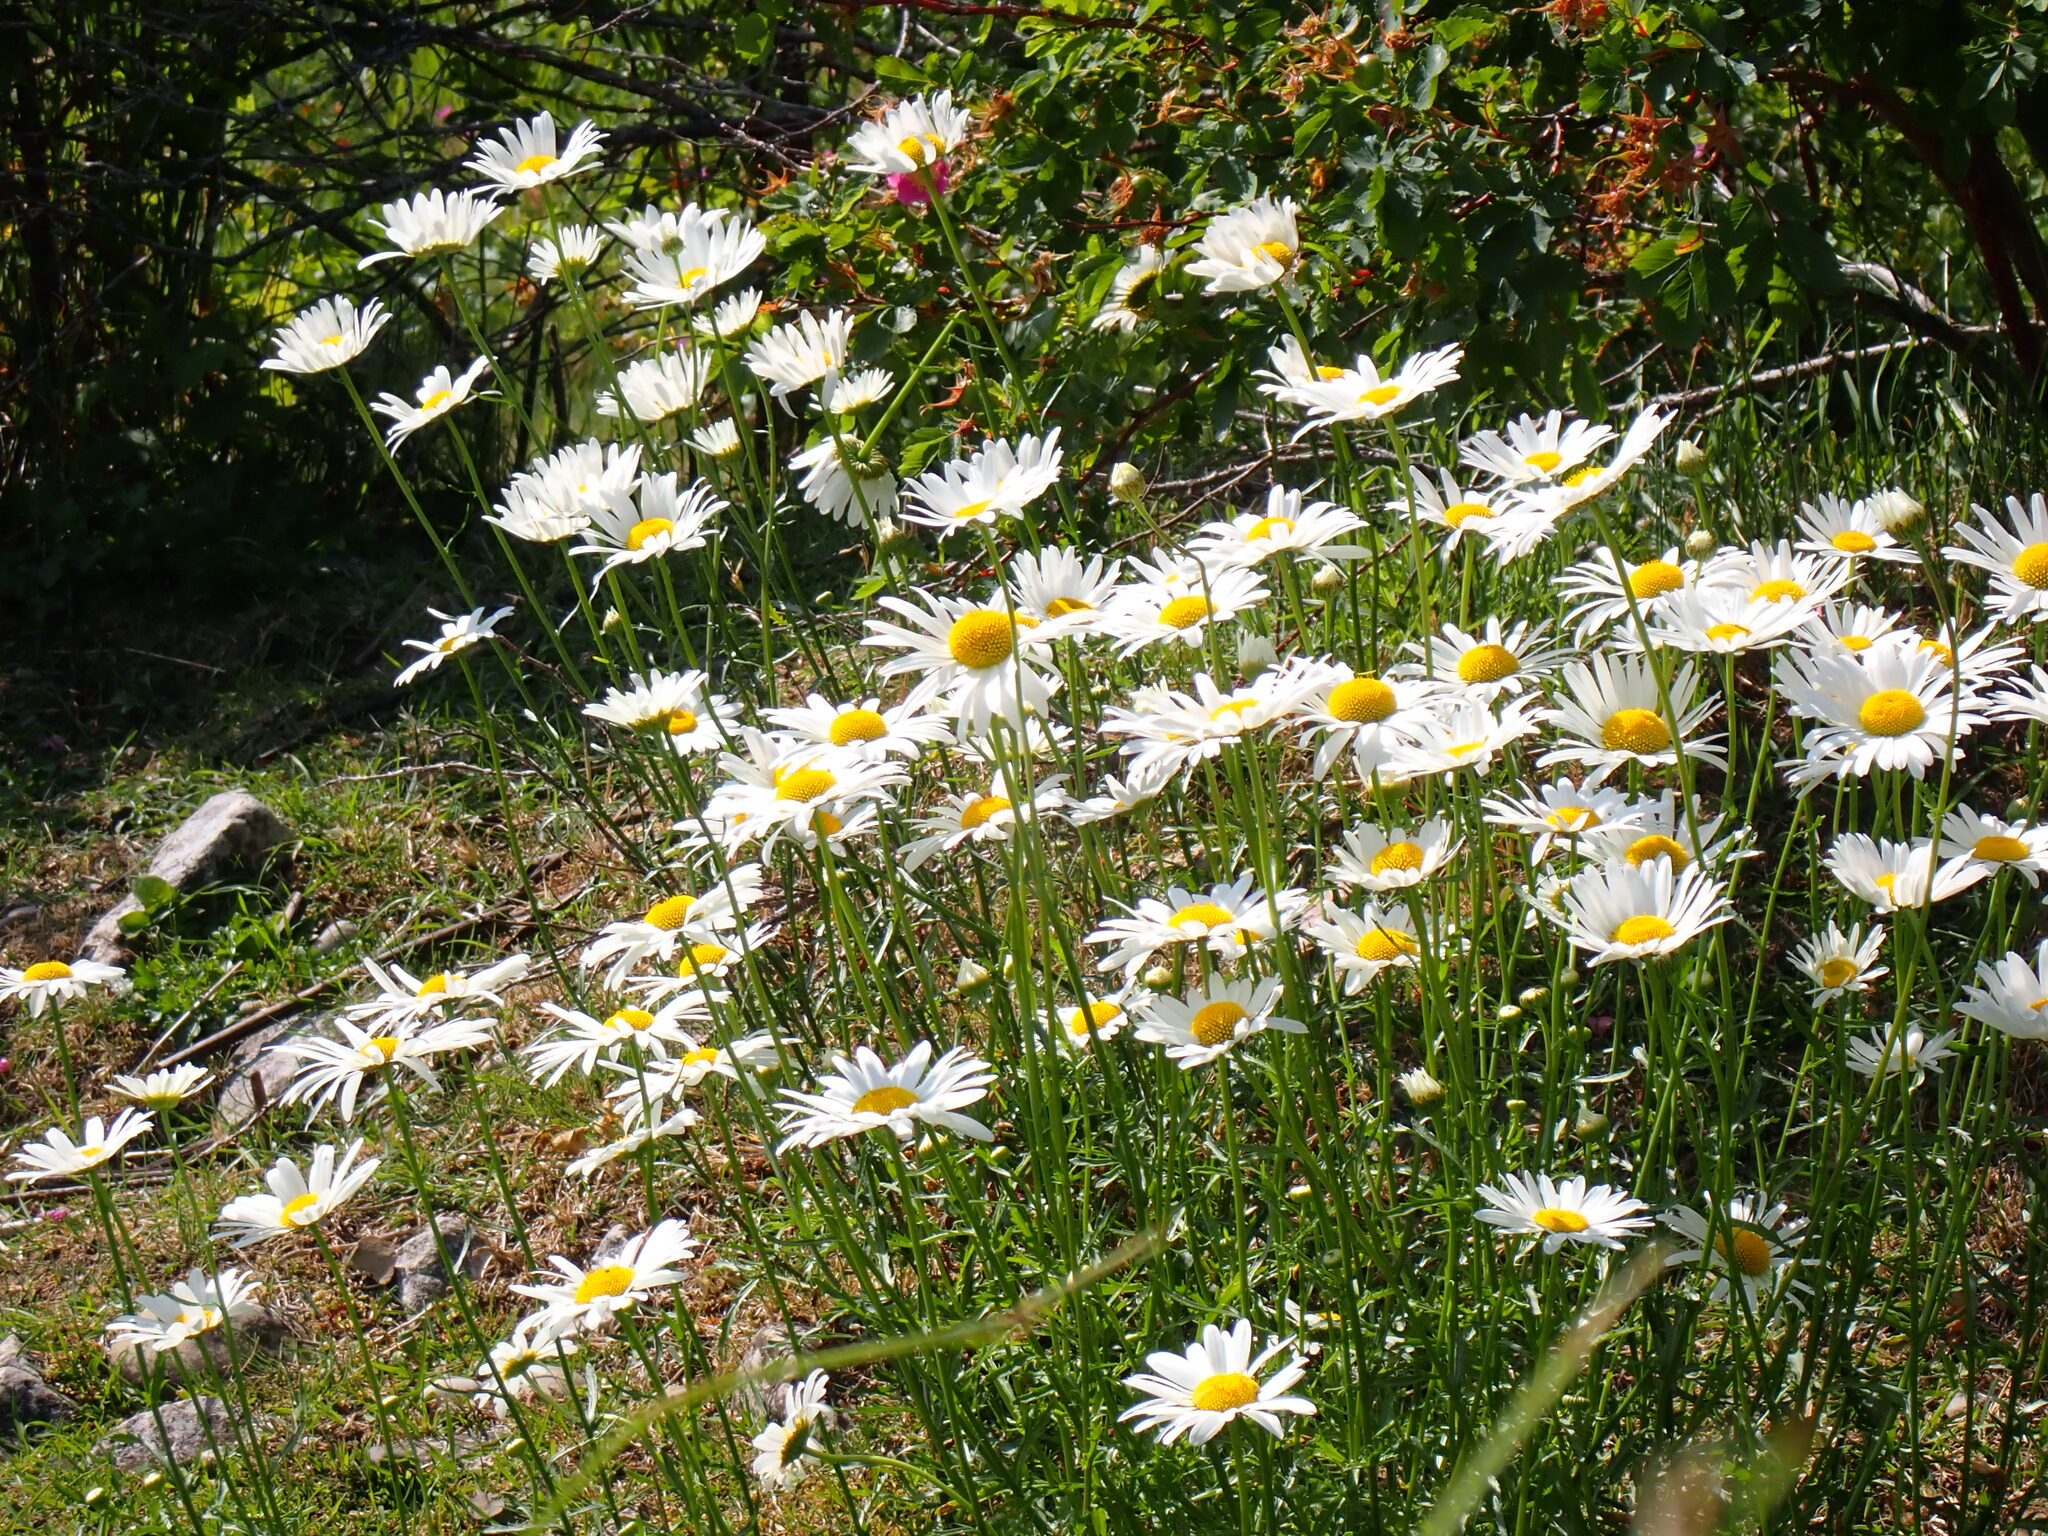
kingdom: Plantae
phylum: Tracheophyta
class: Magnoliopsida
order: Asterales
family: Asteraceae
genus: Leucanthemum
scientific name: Leucanthemum vulgare
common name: Oxeye daisy
